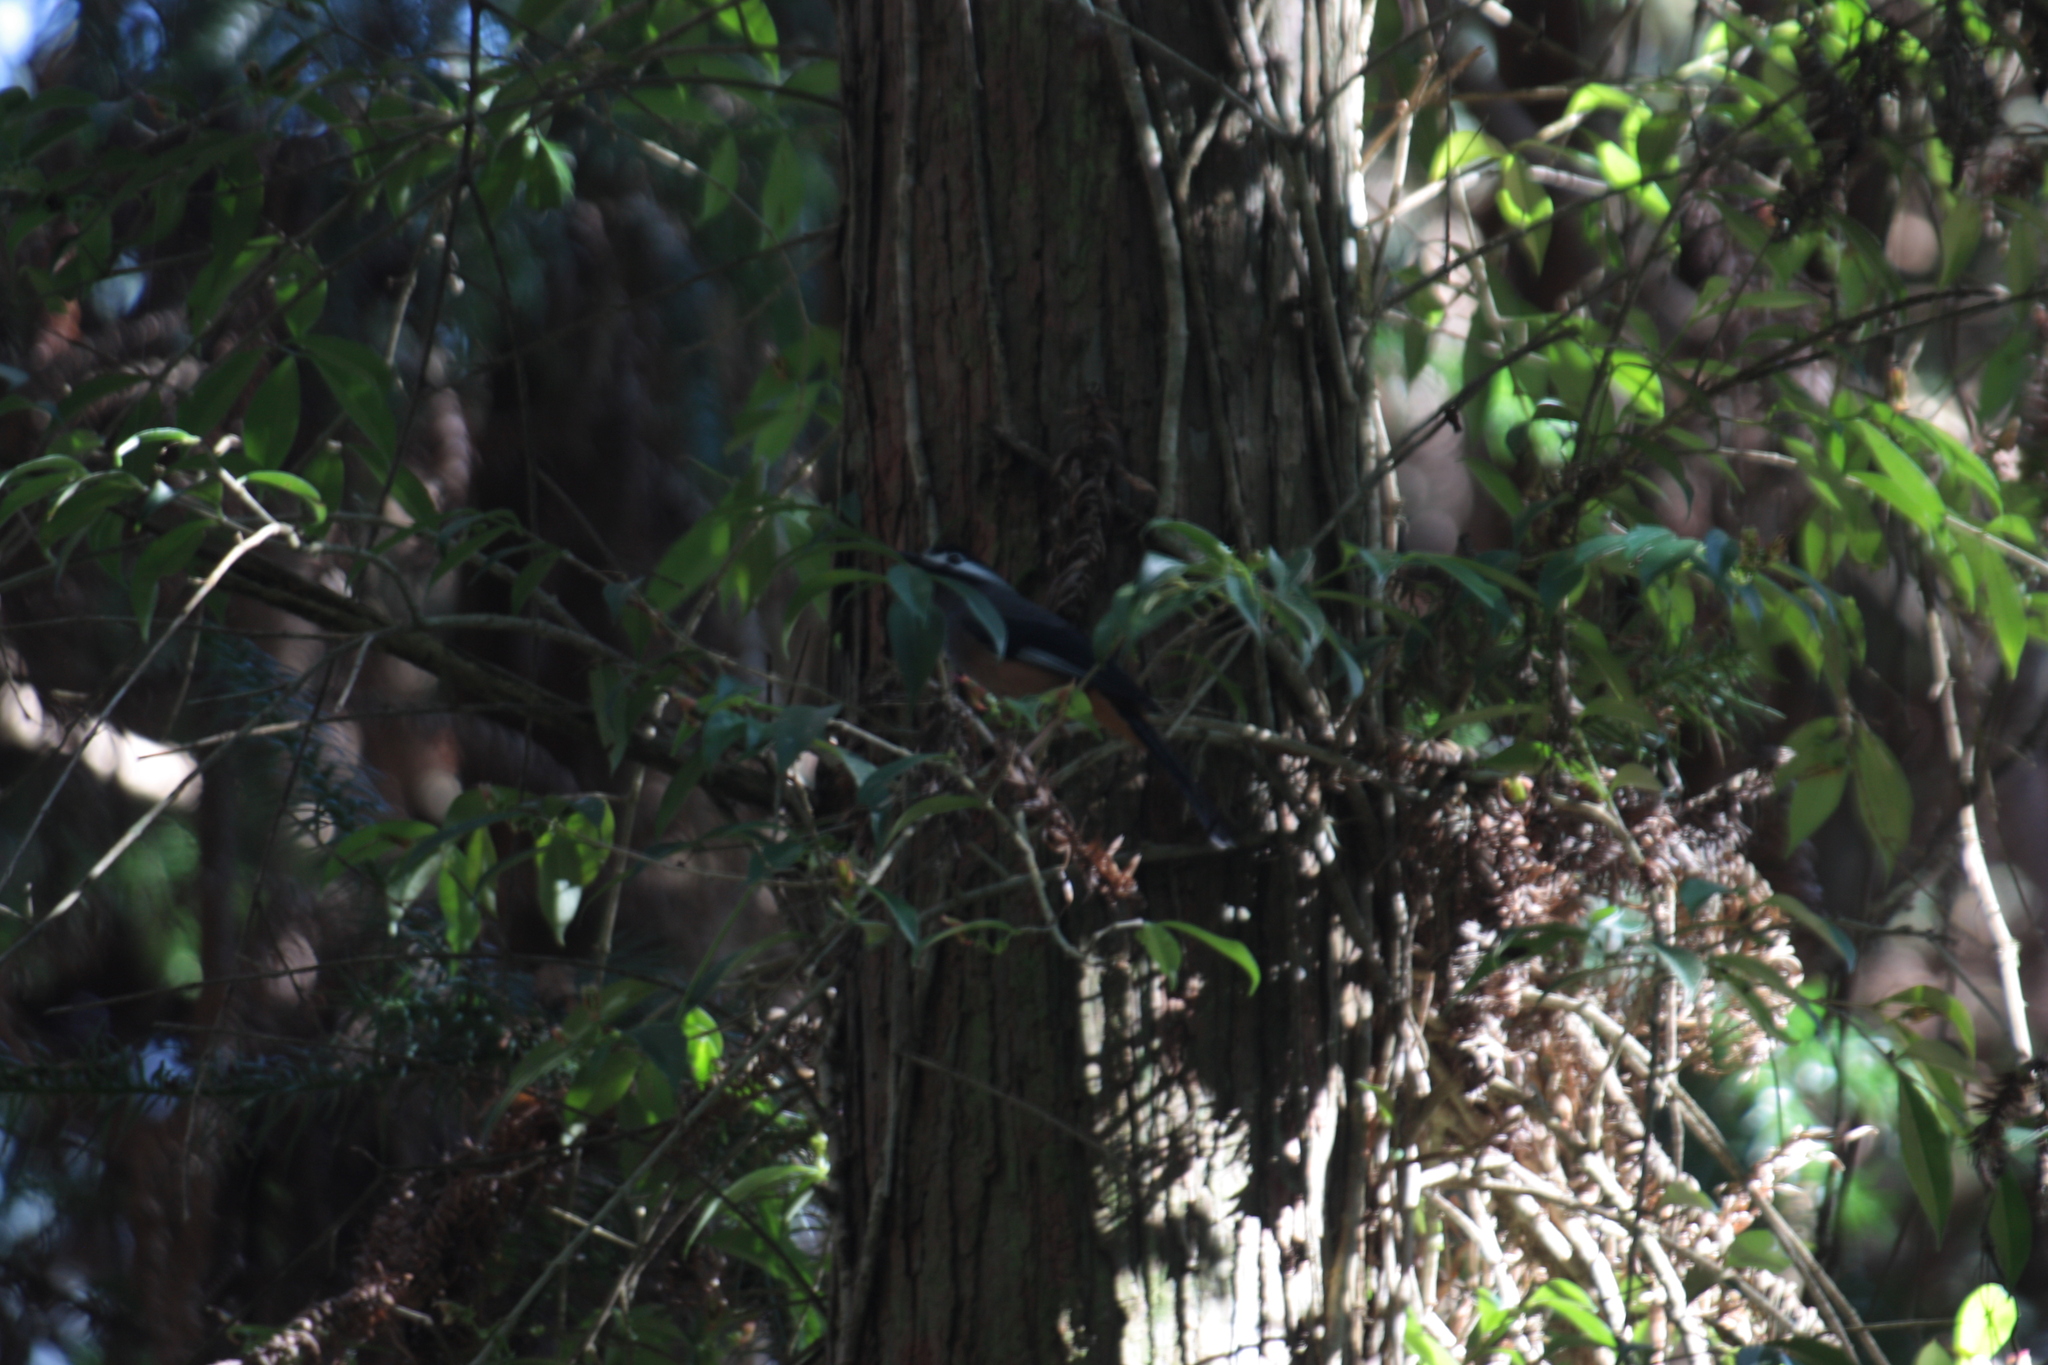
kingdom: Animalia
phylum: Chordata
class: Aves
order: Passeriformes
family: Leiothrichidae
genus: Heterophasia
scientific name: Heterophasia auricularis
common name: White-eared sibia
